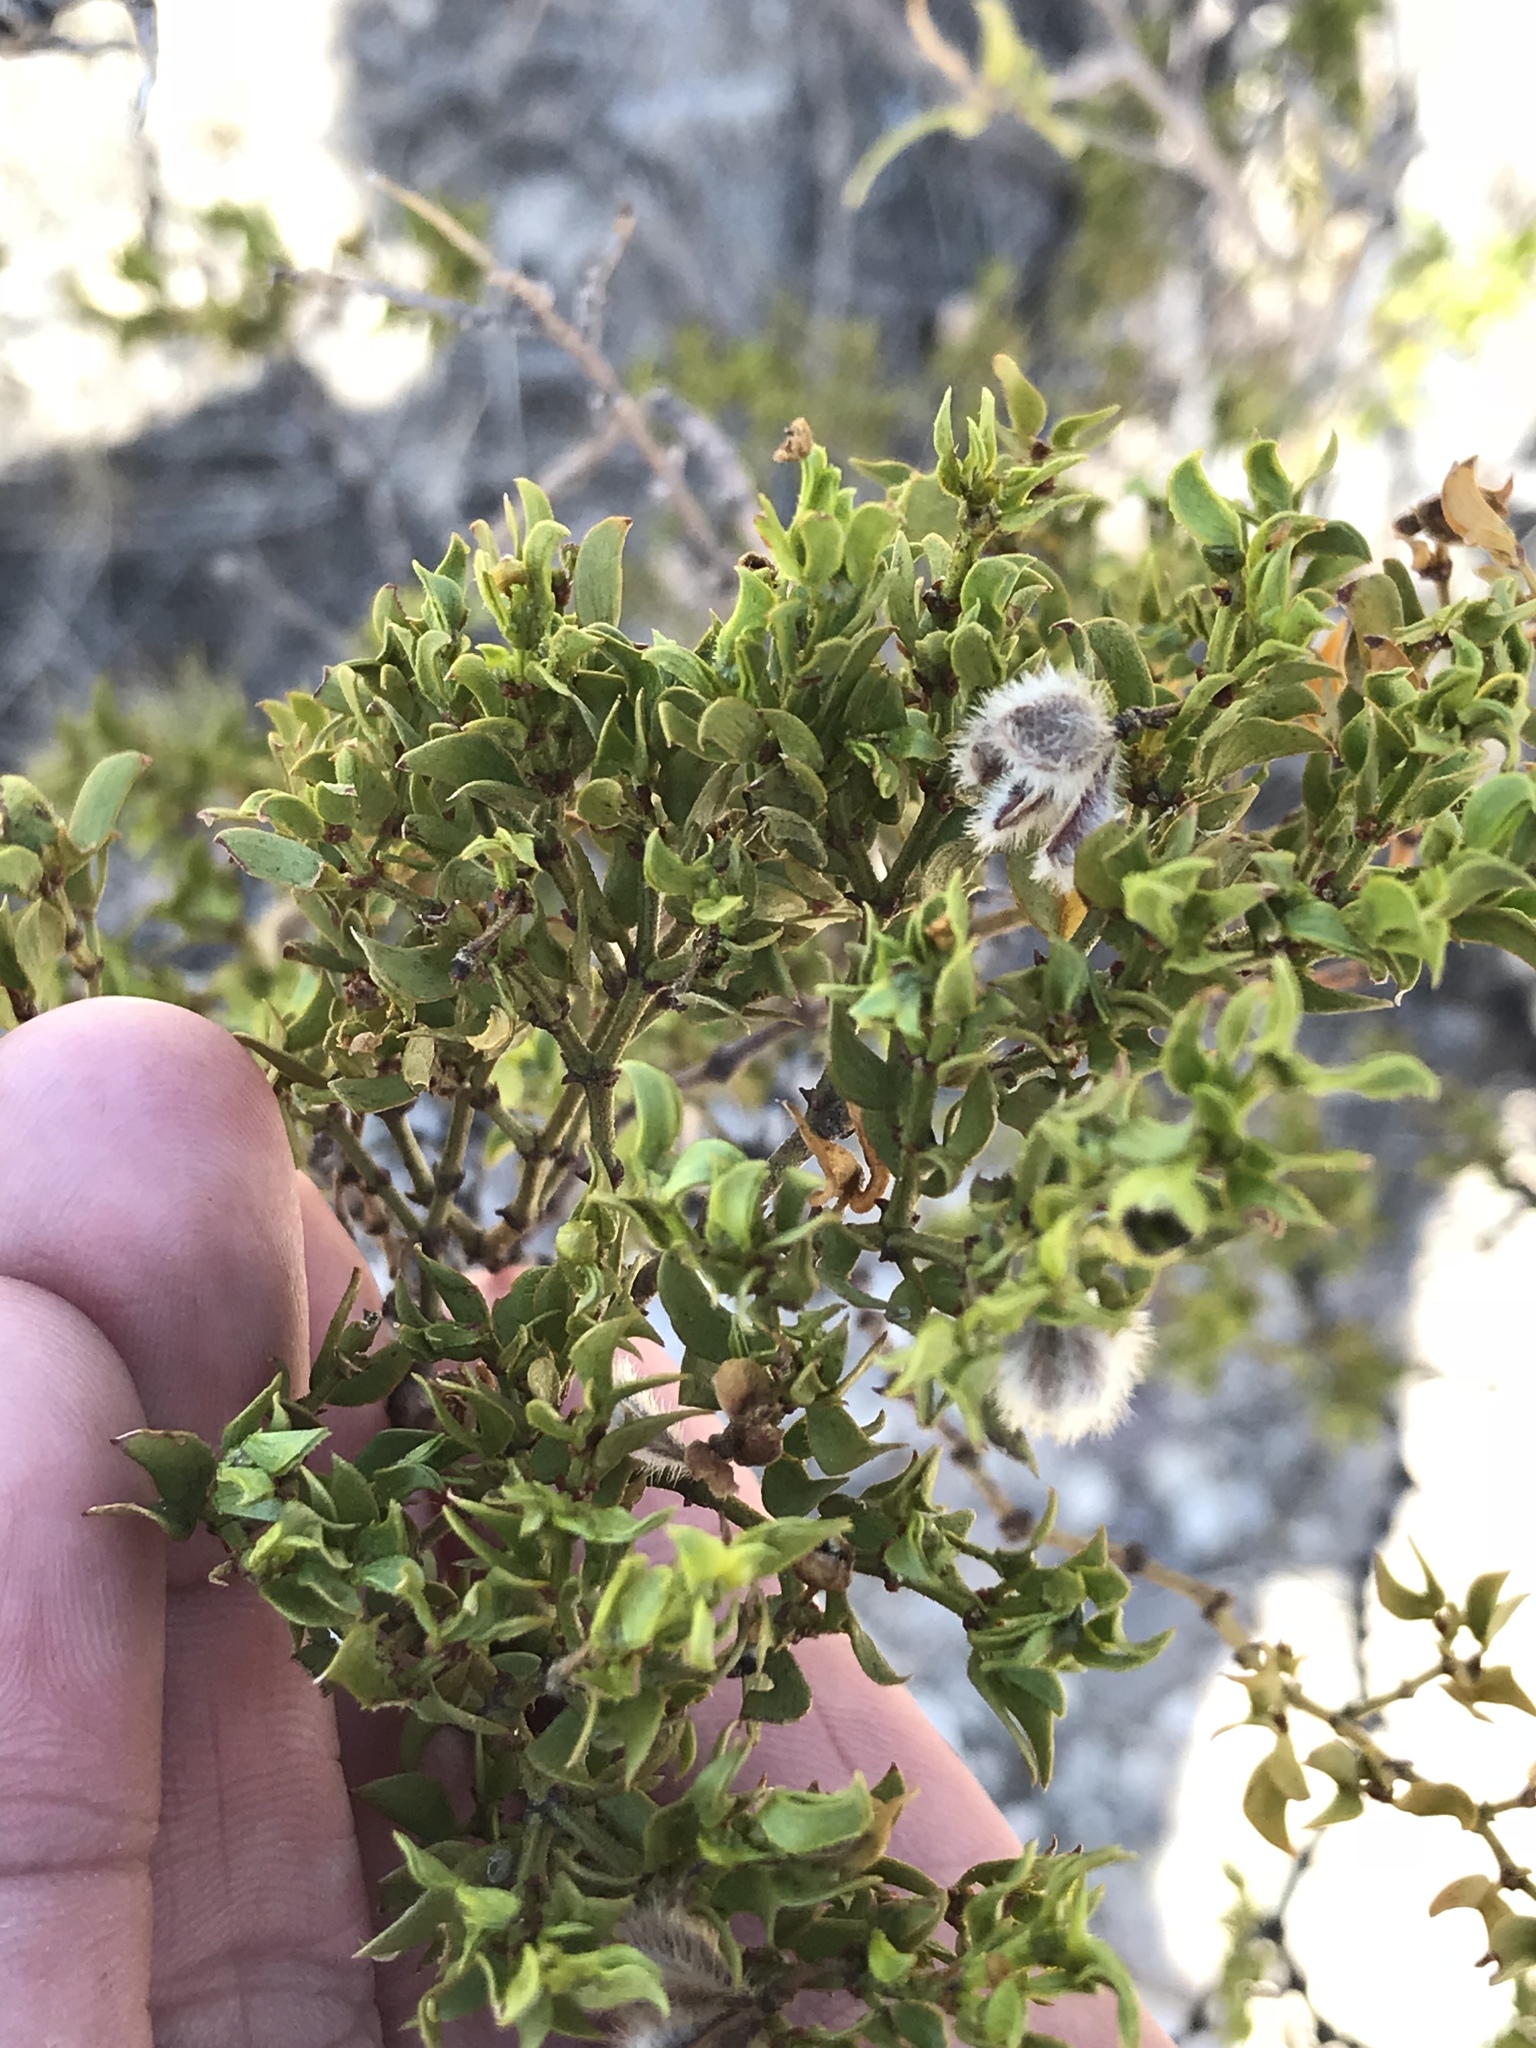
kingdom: Plantae
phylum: Tracheophyta
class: Magnoliopsida
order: Zygophyllales
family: Zygophyllaceae
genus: Larrea
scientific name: Larrea tridentata
